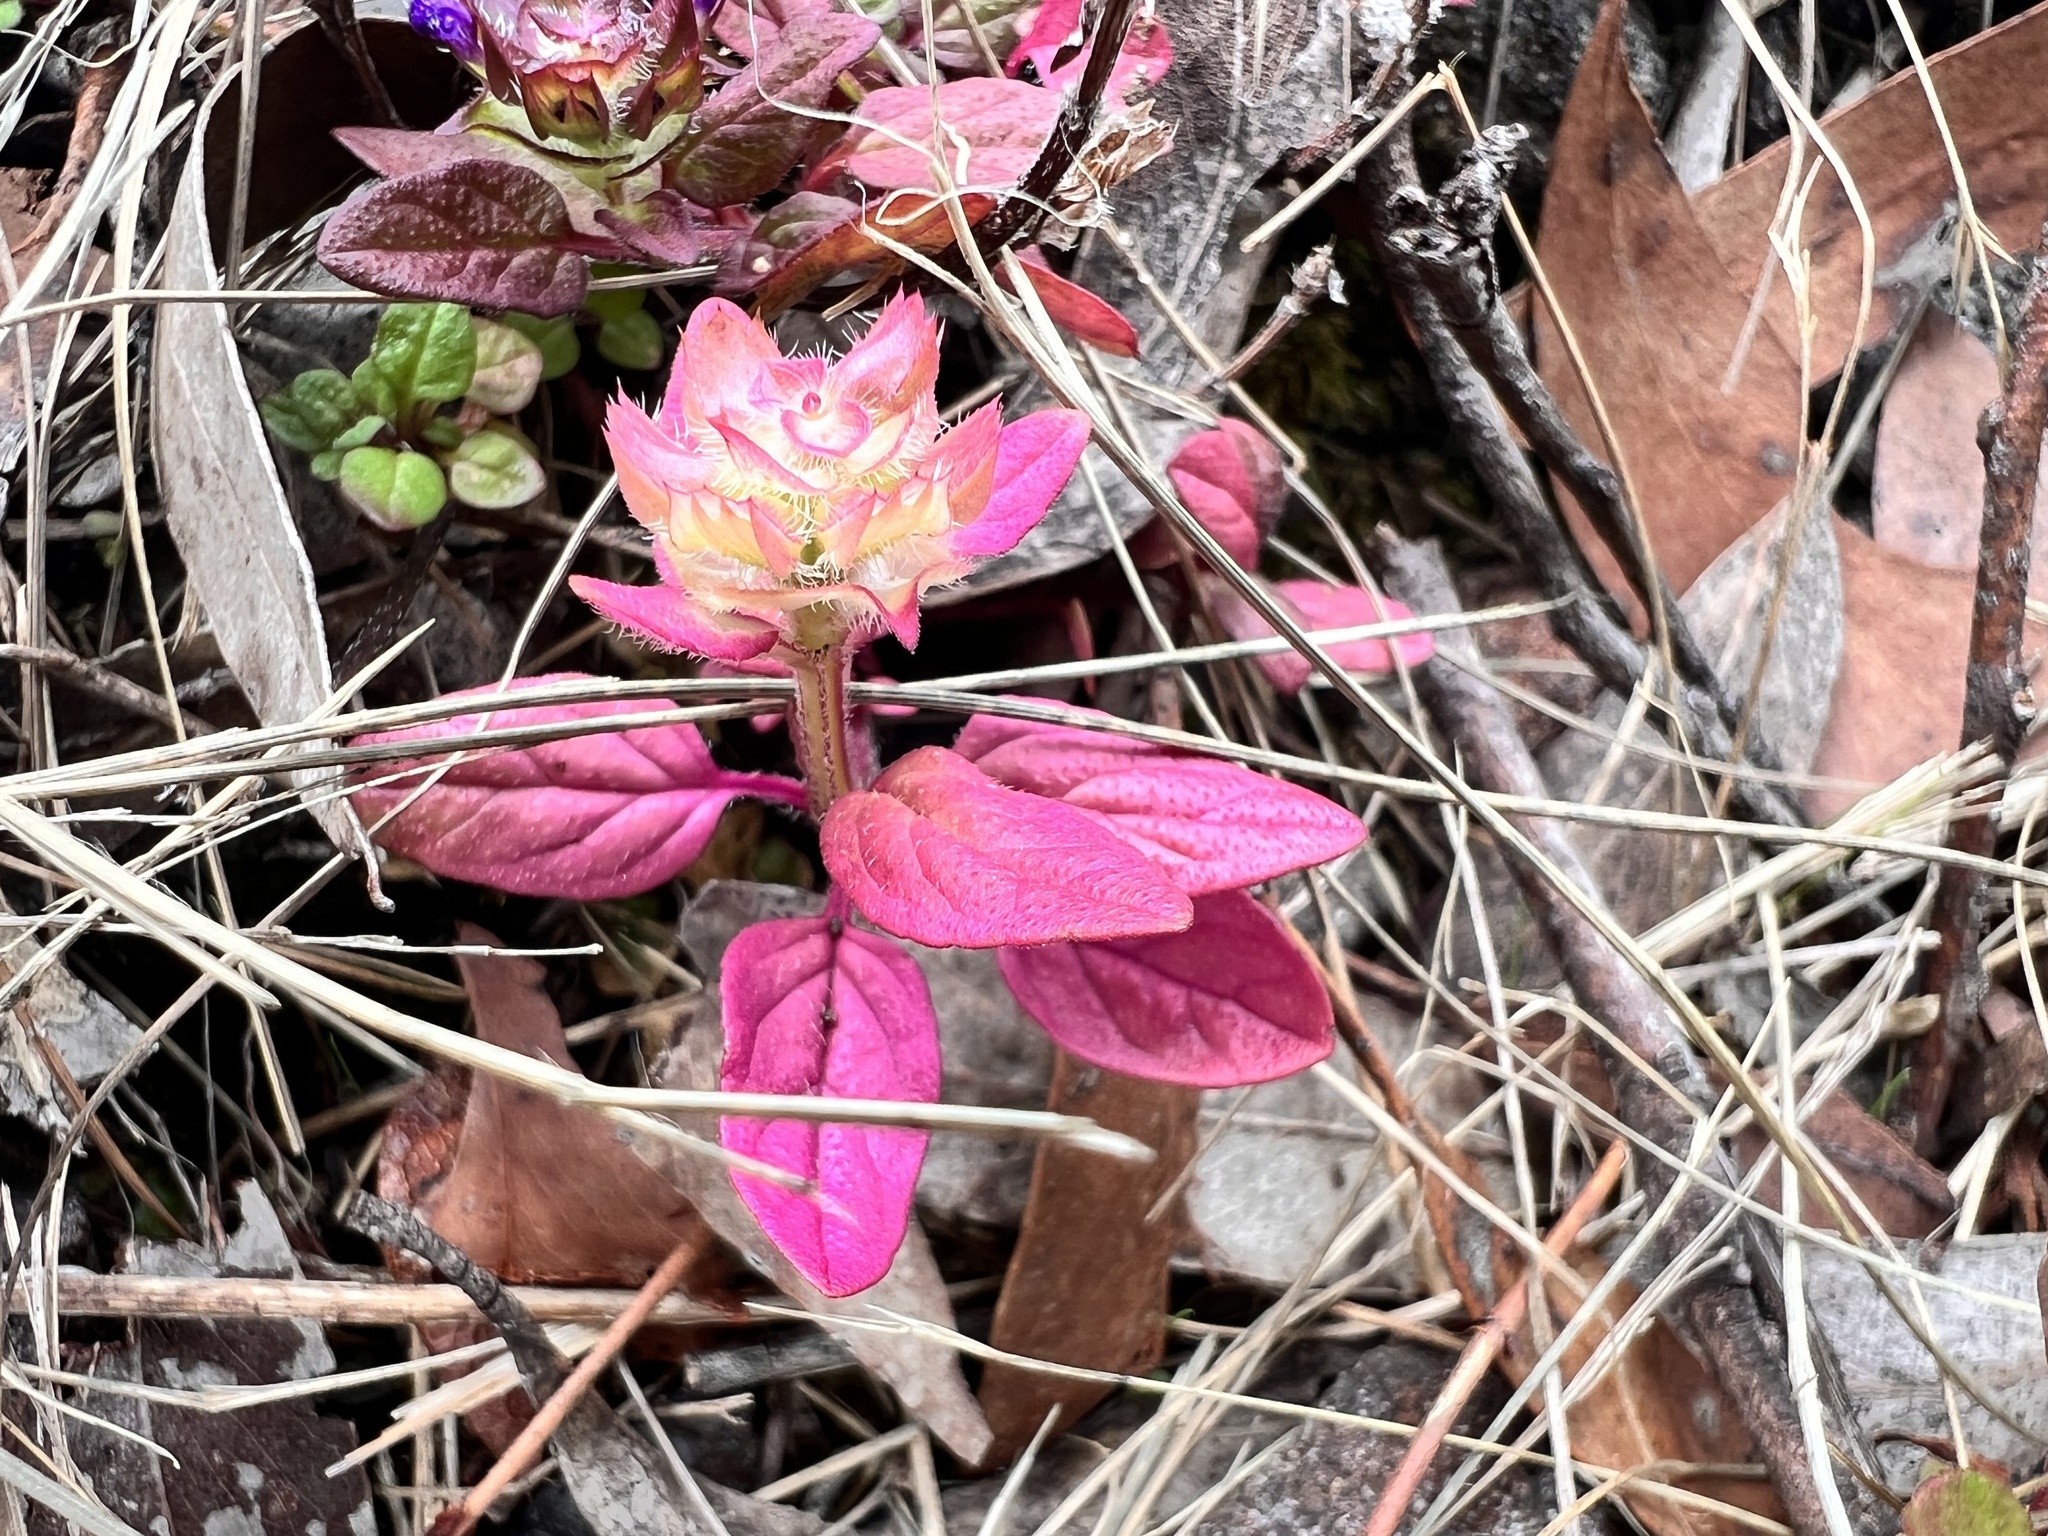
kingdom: Plantae
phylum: Tracheophyta
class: Magnoliopsida
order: Lamiales
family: Lamiaceae
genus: Prunella
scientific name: Prunella vulgaris
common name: Heal-all
